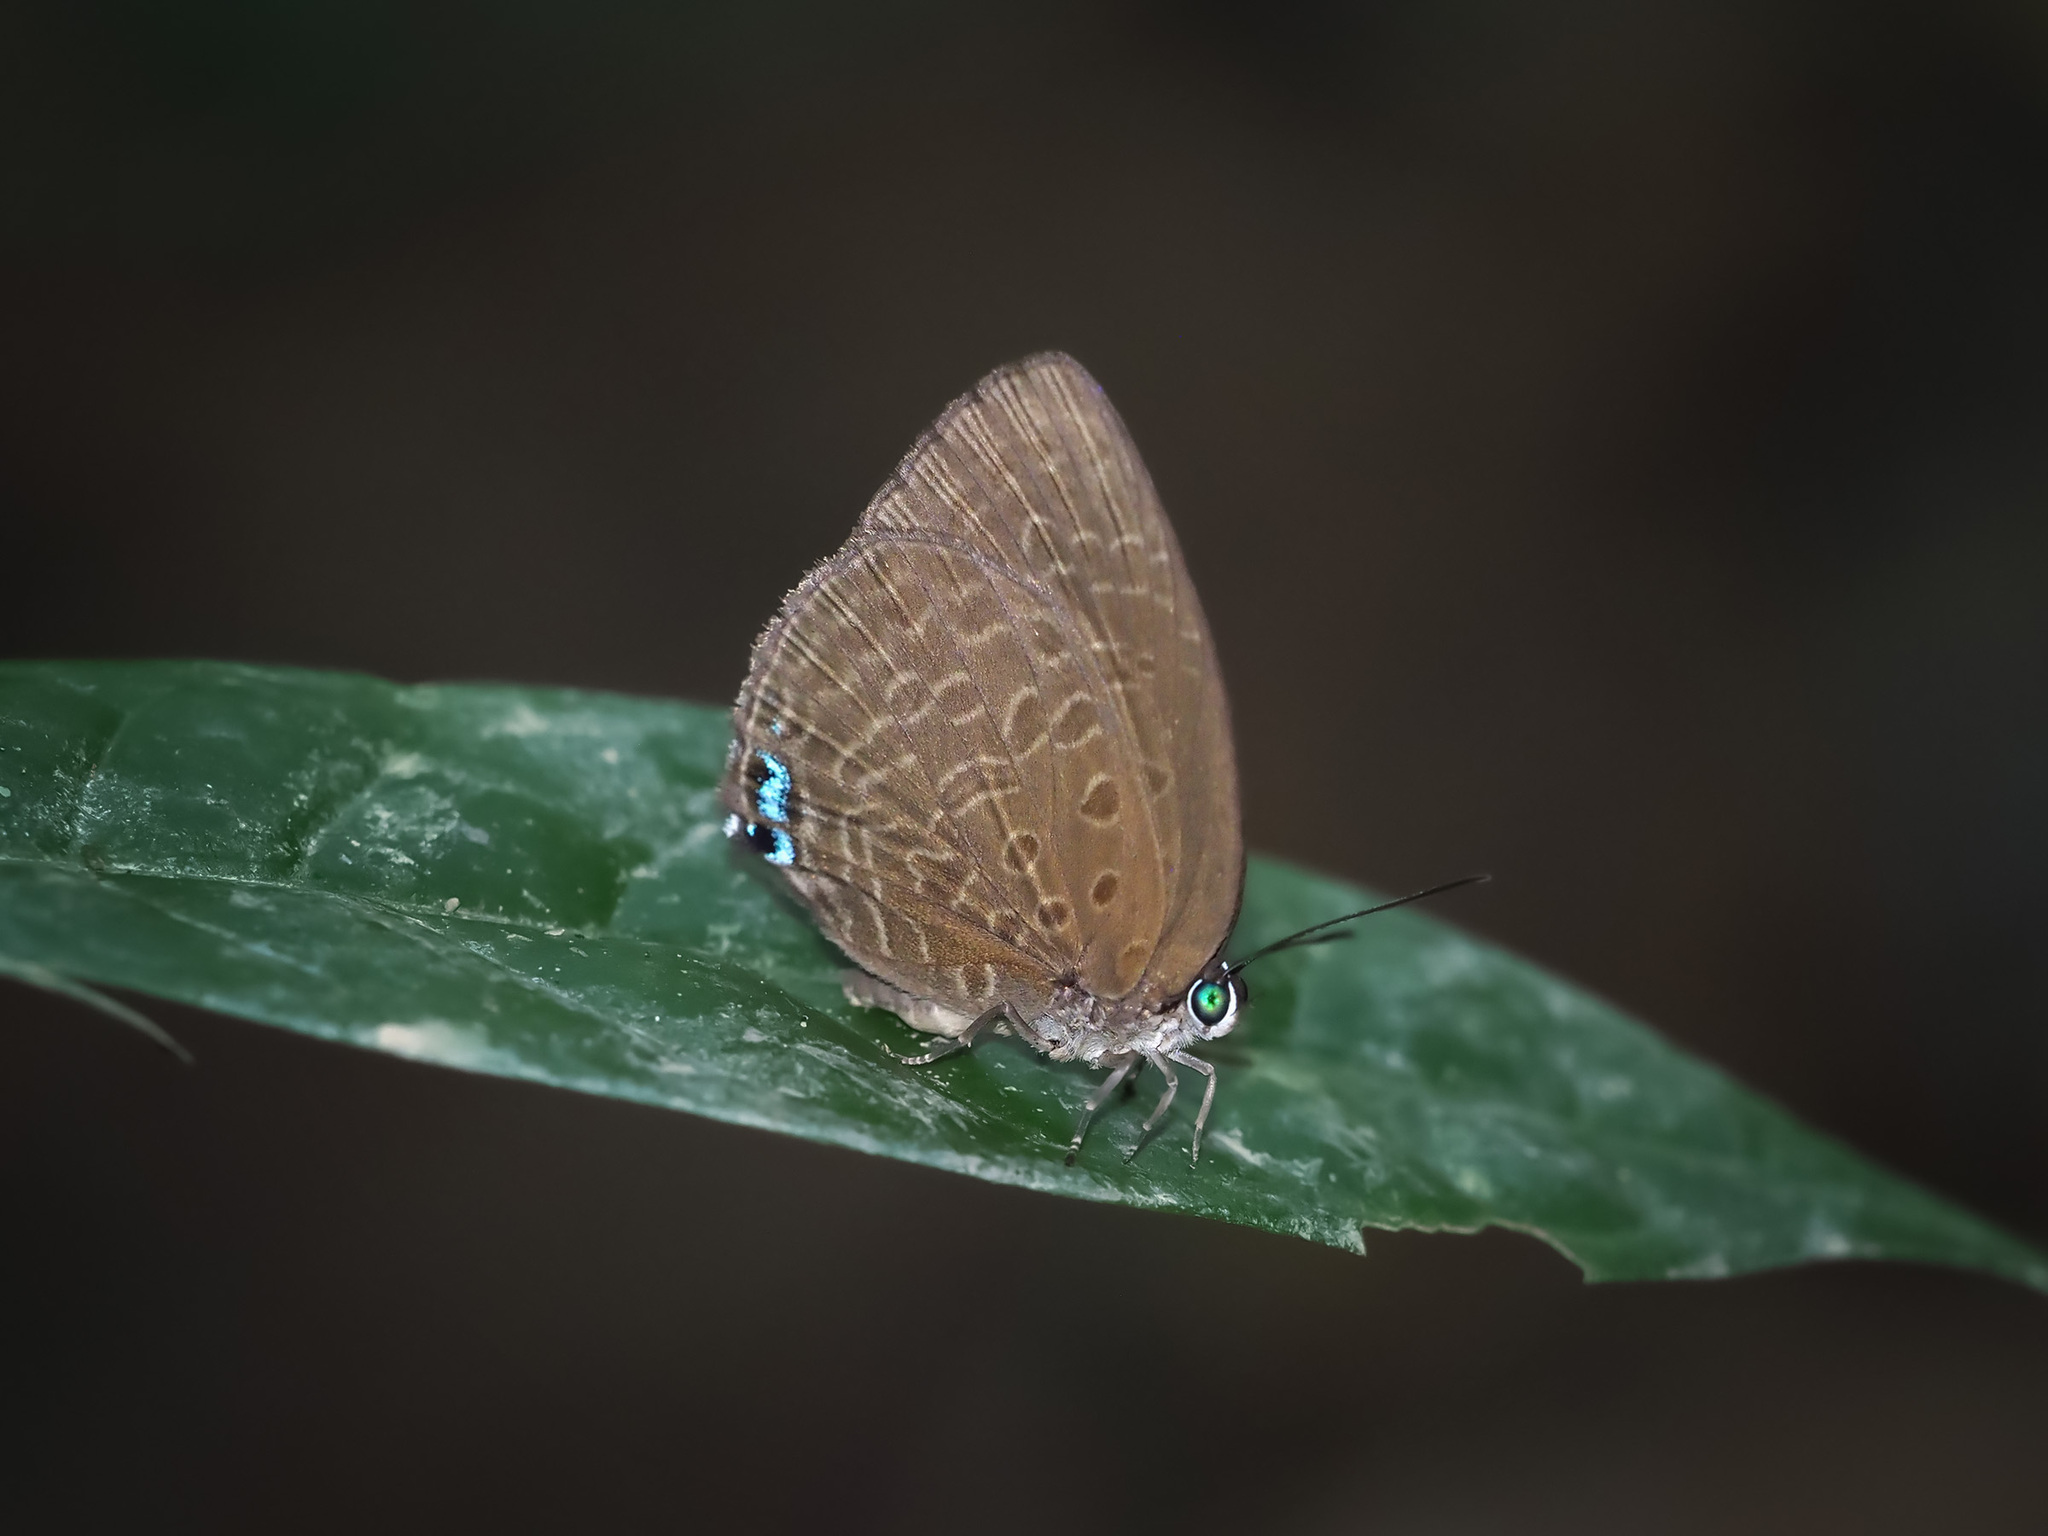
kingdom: Animalia
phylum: Arthropoda
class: Insecta
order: Lepidoptera
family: Lycaenidae
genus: Arhopala
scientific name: Arhopala epimuta
